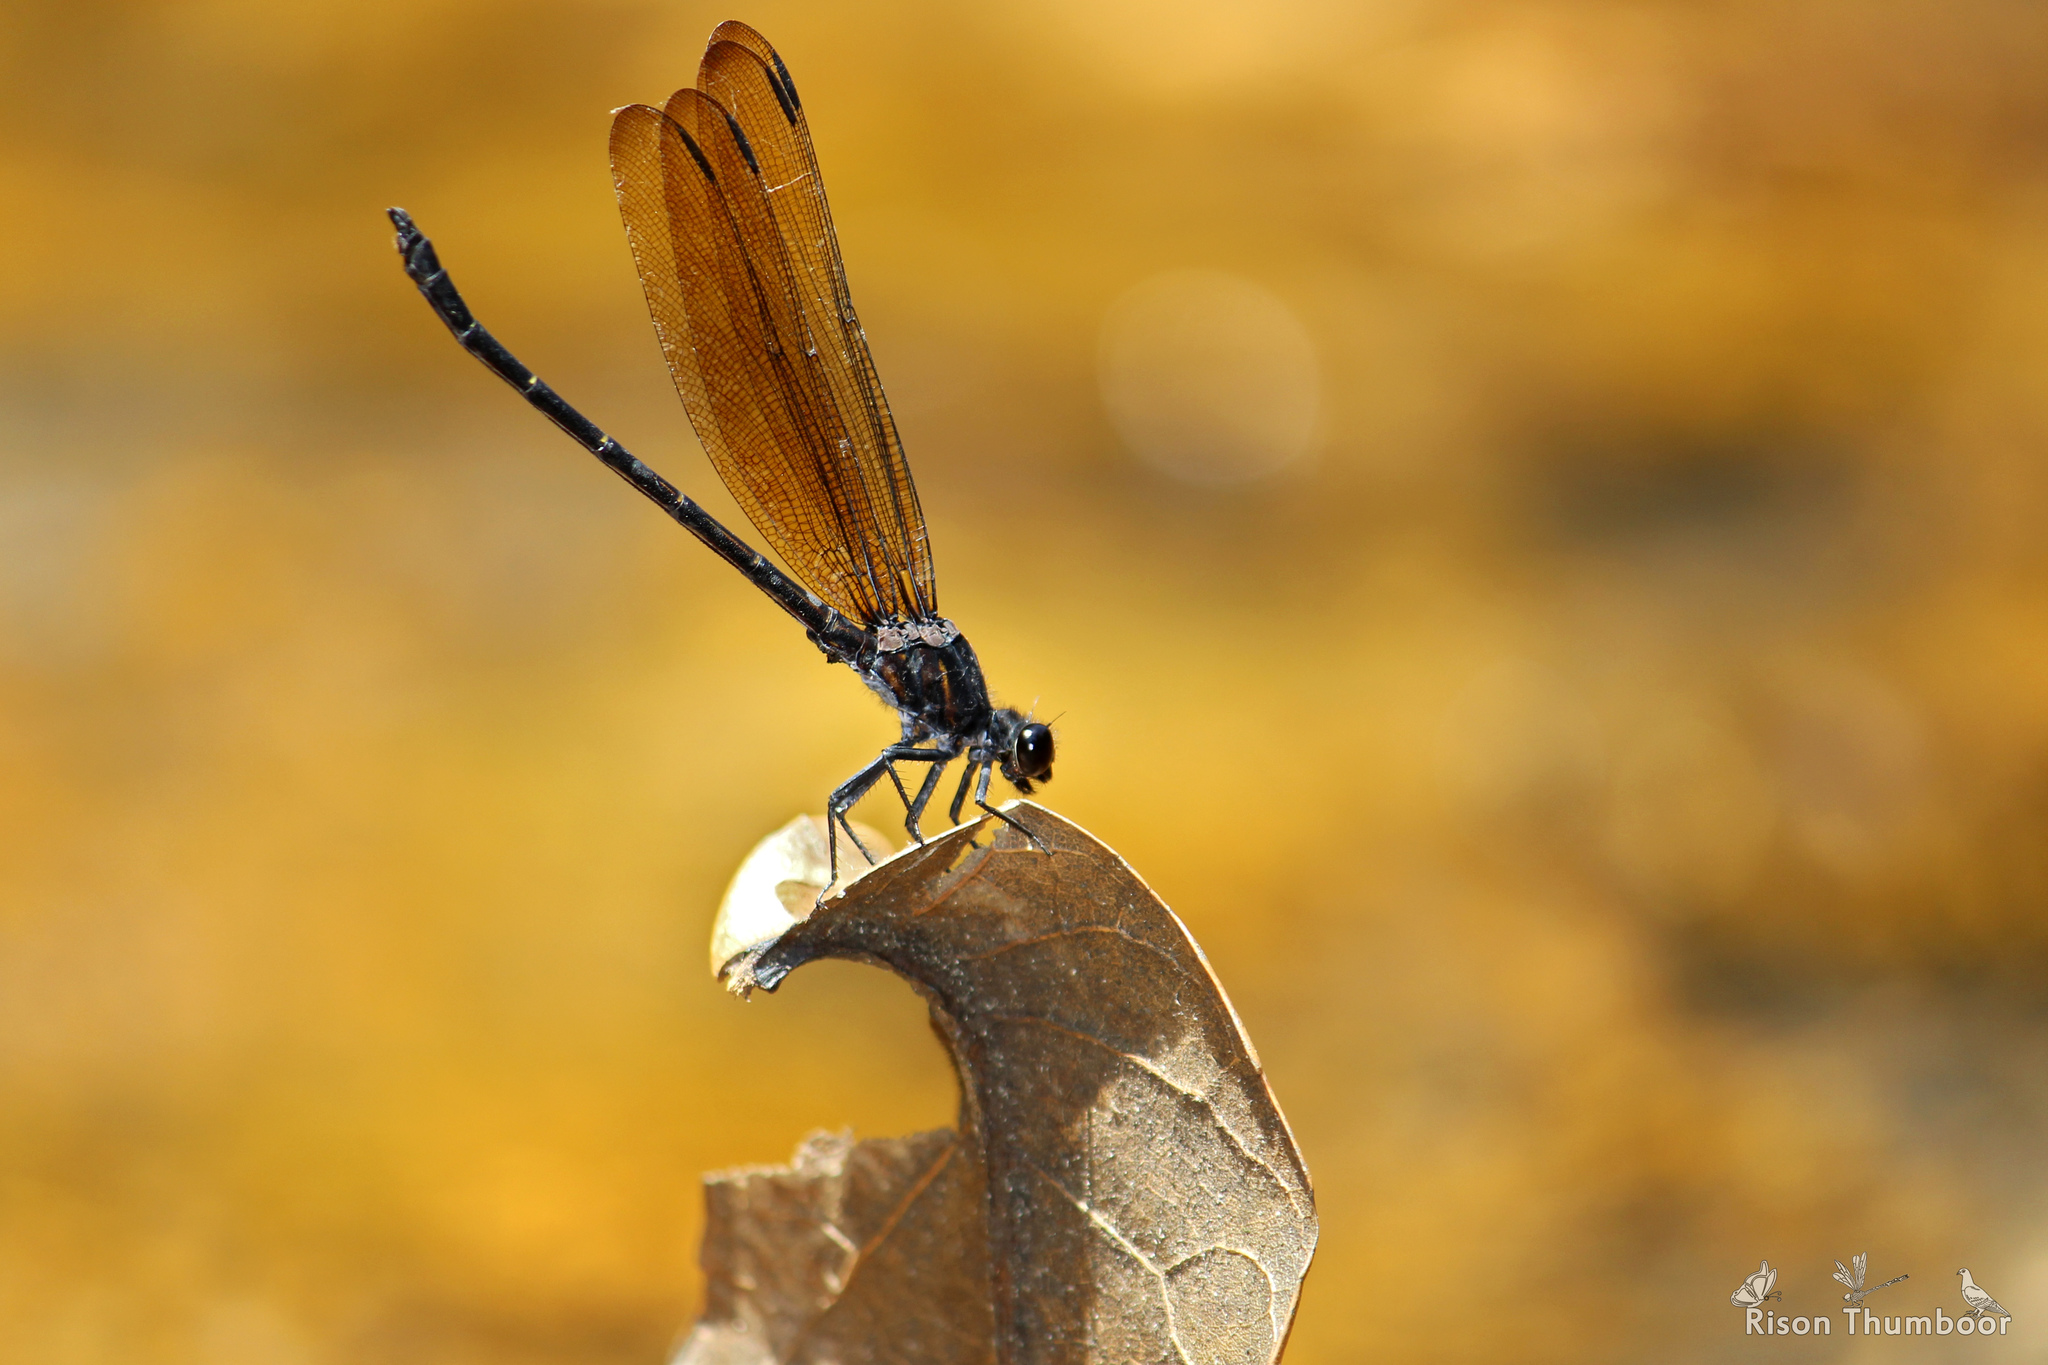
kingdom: Animalia
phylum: Arthropoda
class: Insecta
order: Odonata
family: Euphaeidae
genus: Dysphaea
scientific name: Dysphaea ethela
